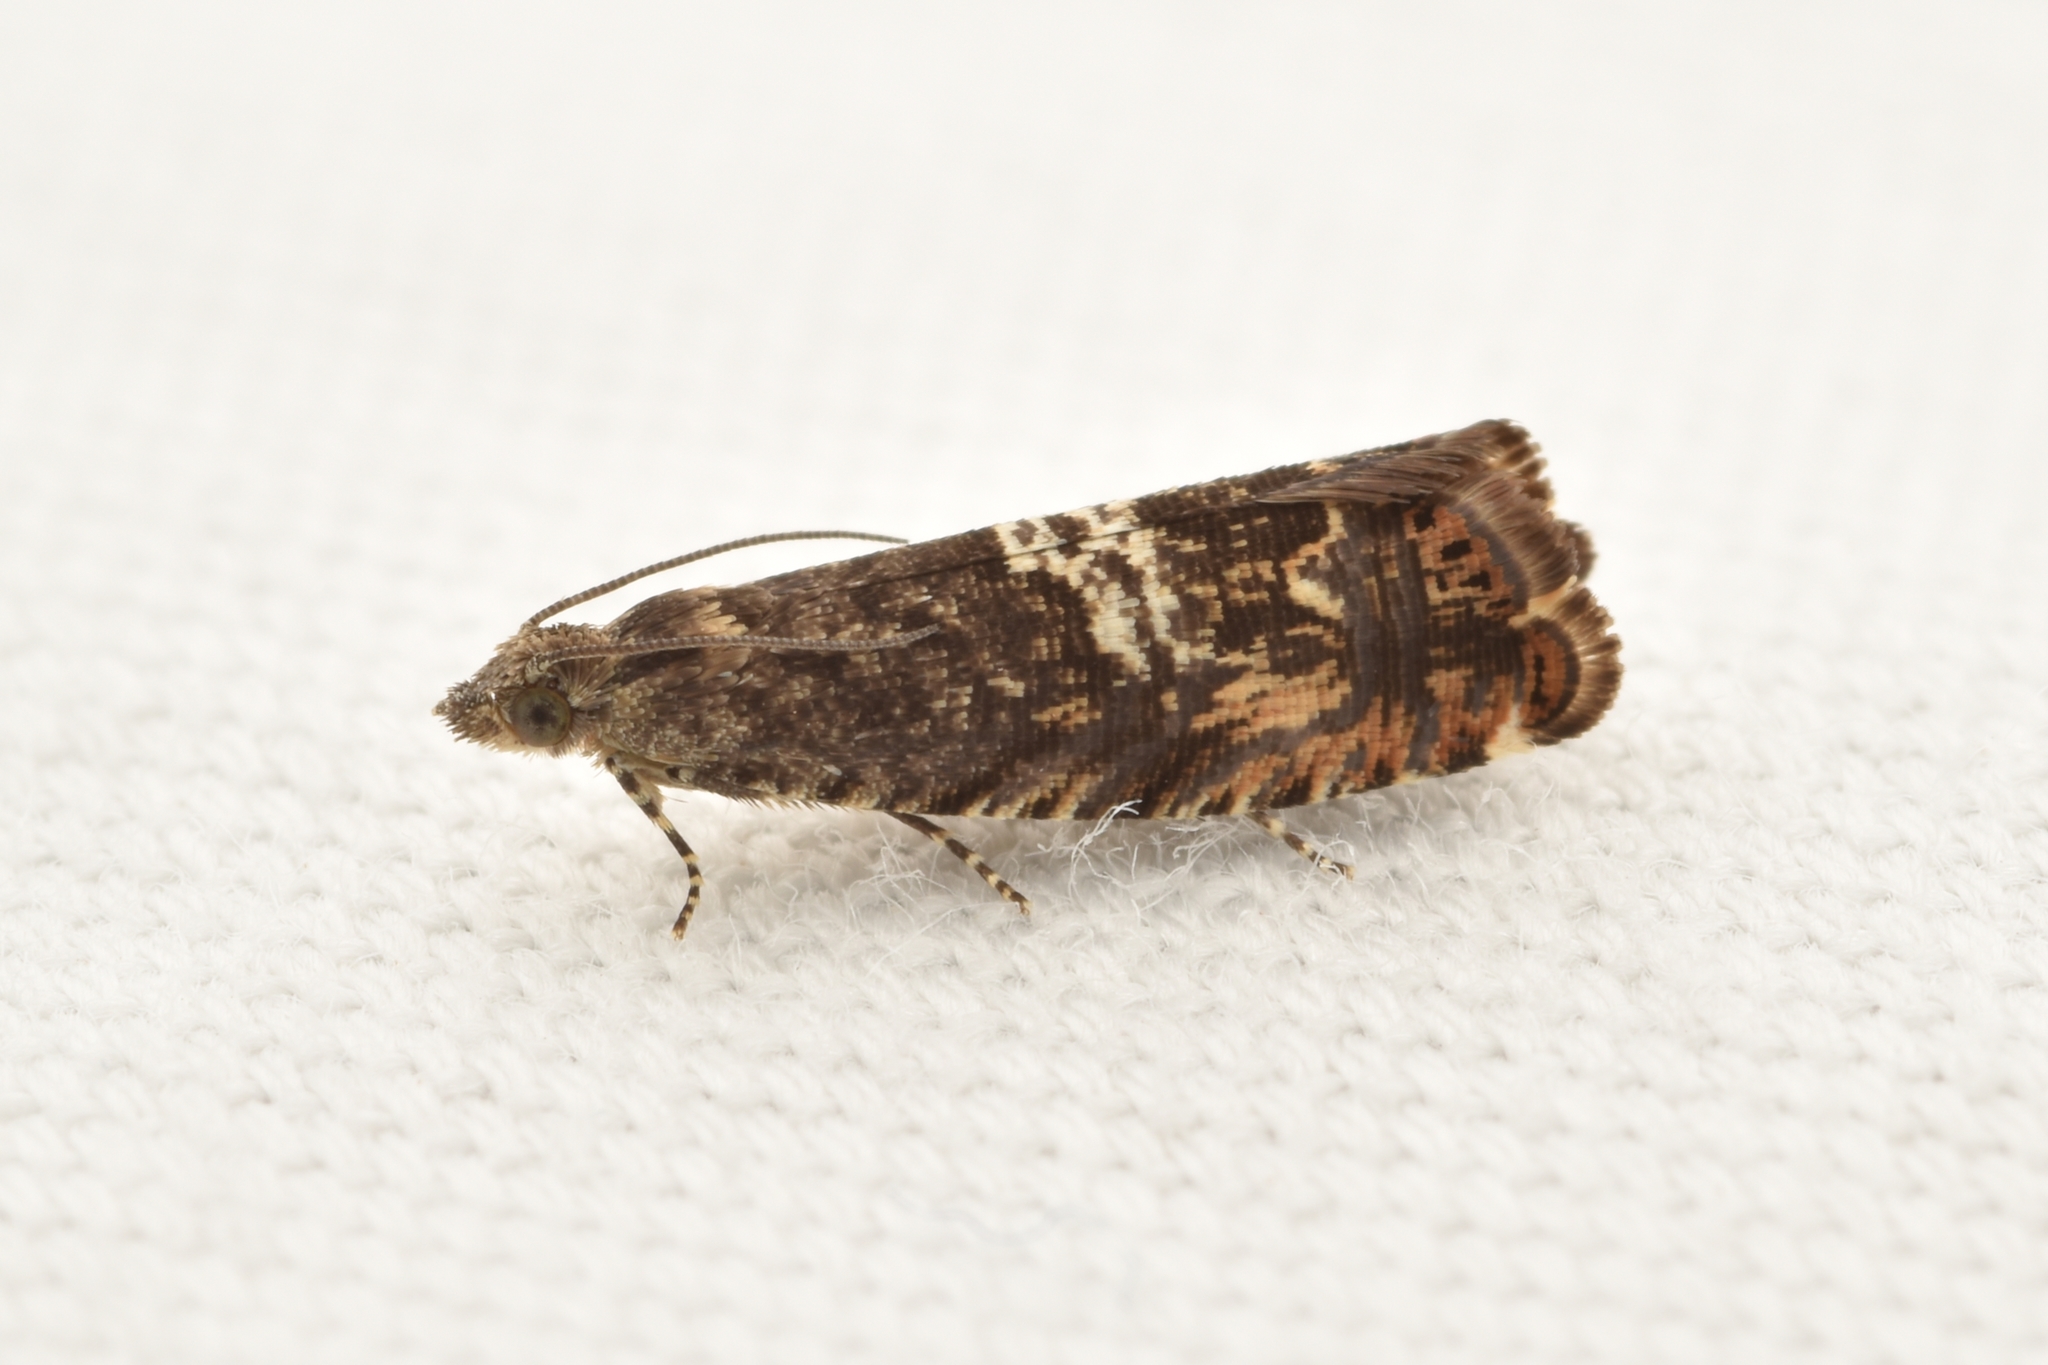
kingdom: Animalia
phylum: Arthropoda
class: Insecta
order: Lepidoptera
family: Tortricidae
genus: Goditha
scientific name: Goditha bumeliana
